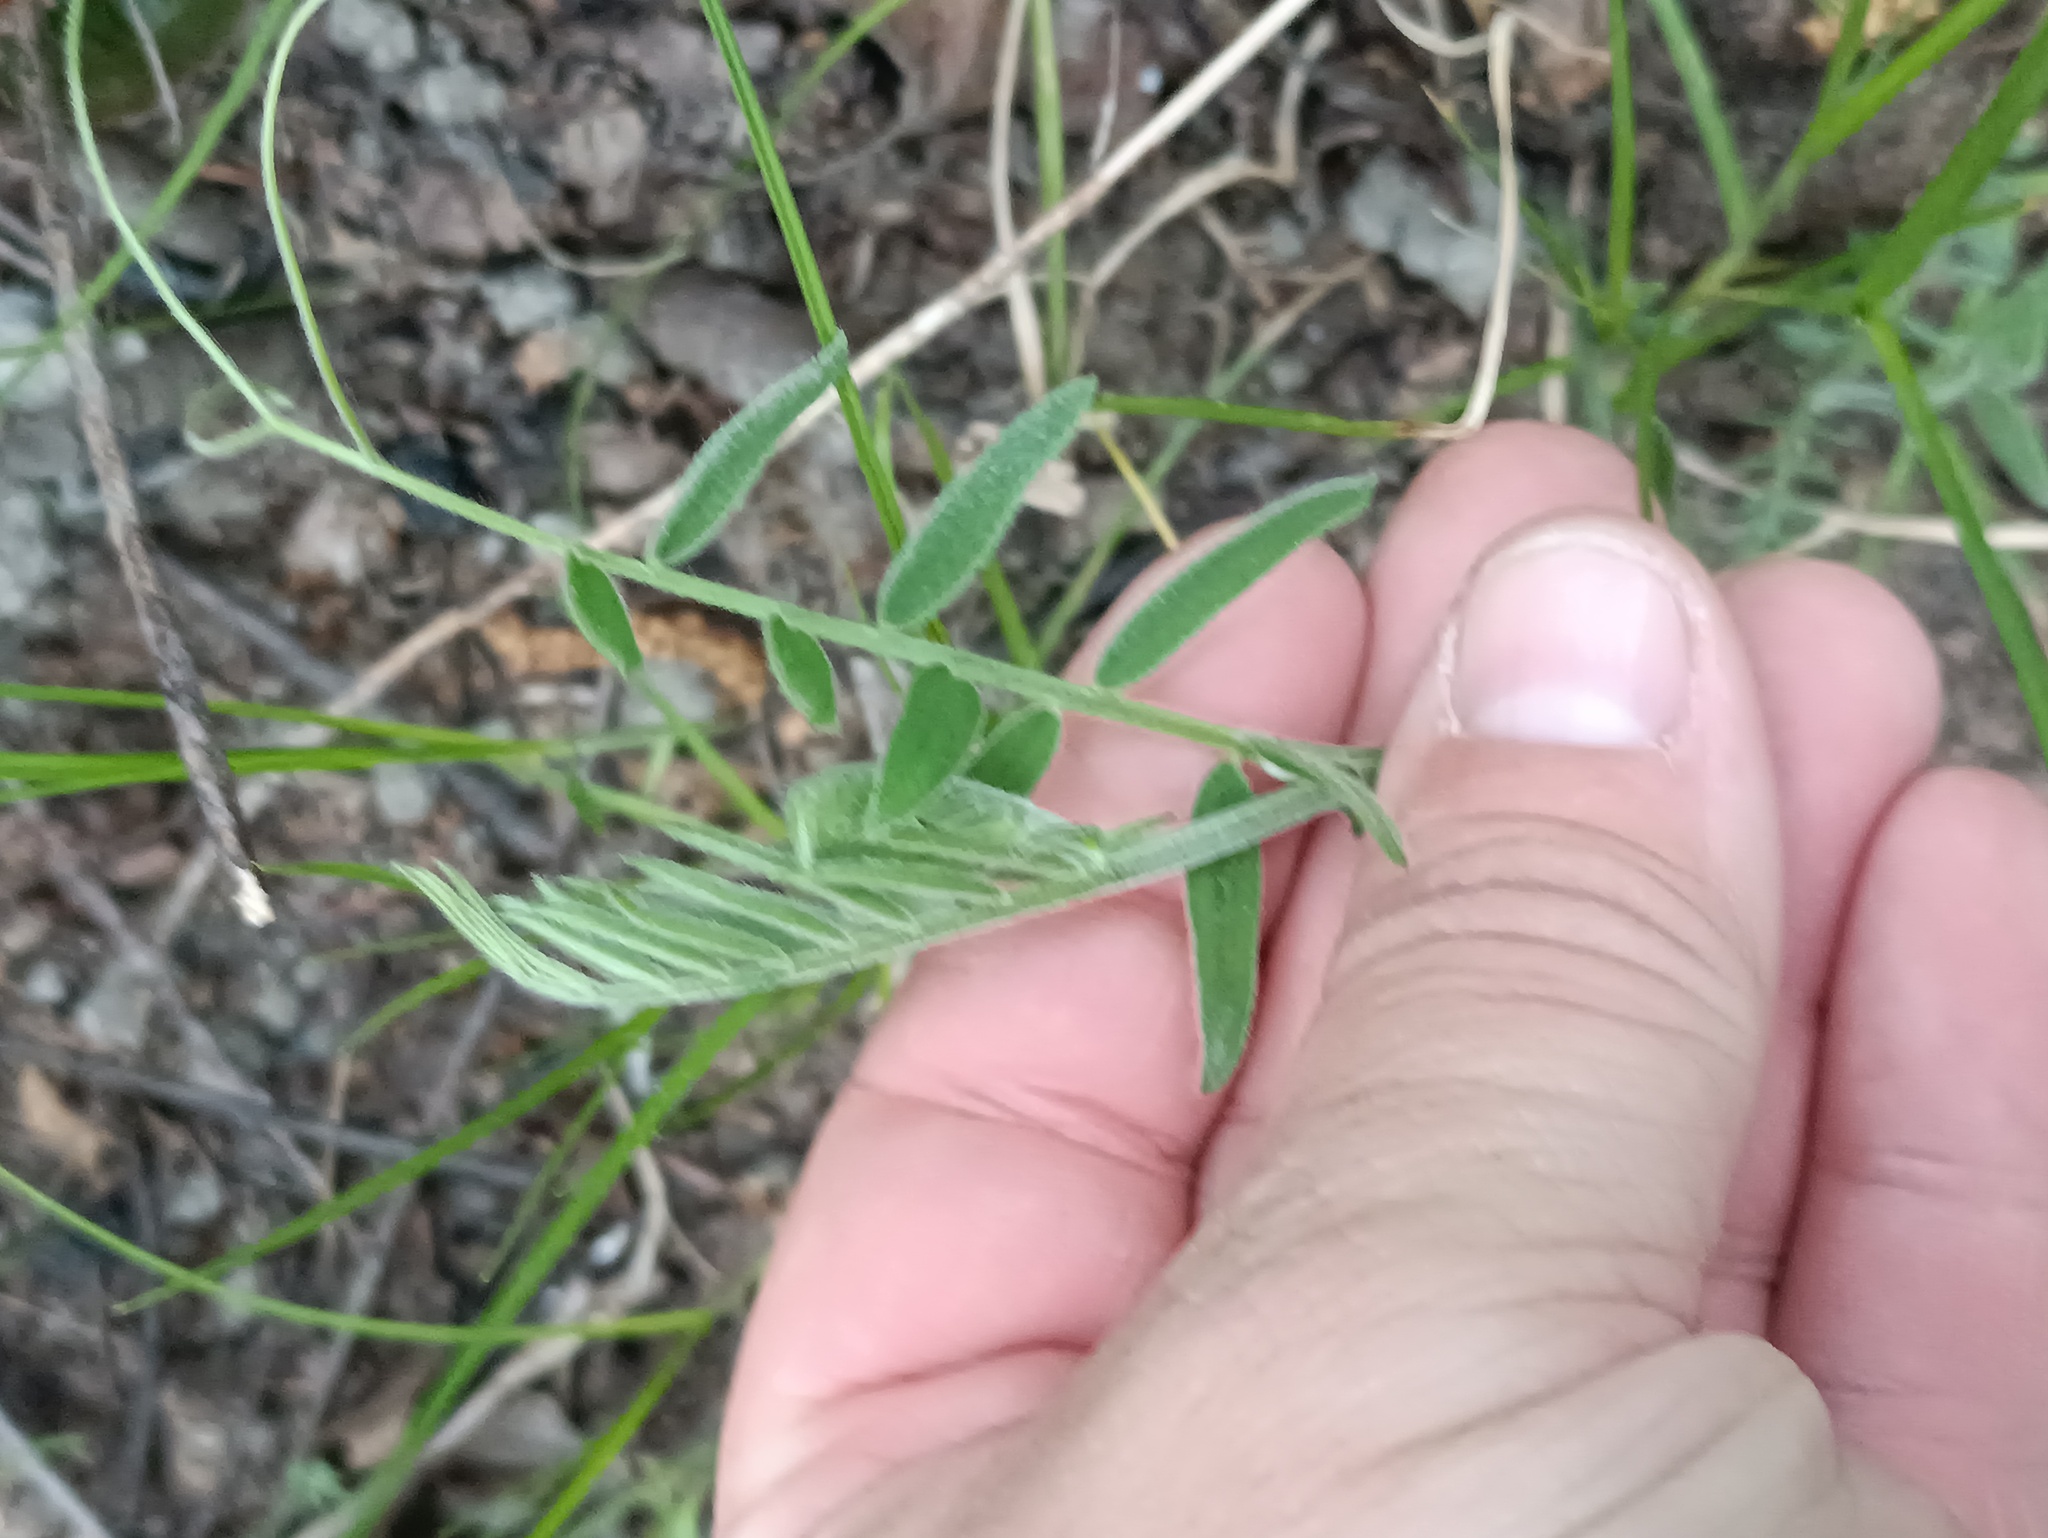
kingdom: Plantae
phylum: Tracheophyta
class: Magnoliopsida
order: Fabales
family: Fabaceae
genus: Vicia
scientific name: Vicia cracca
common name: Bird vetch
